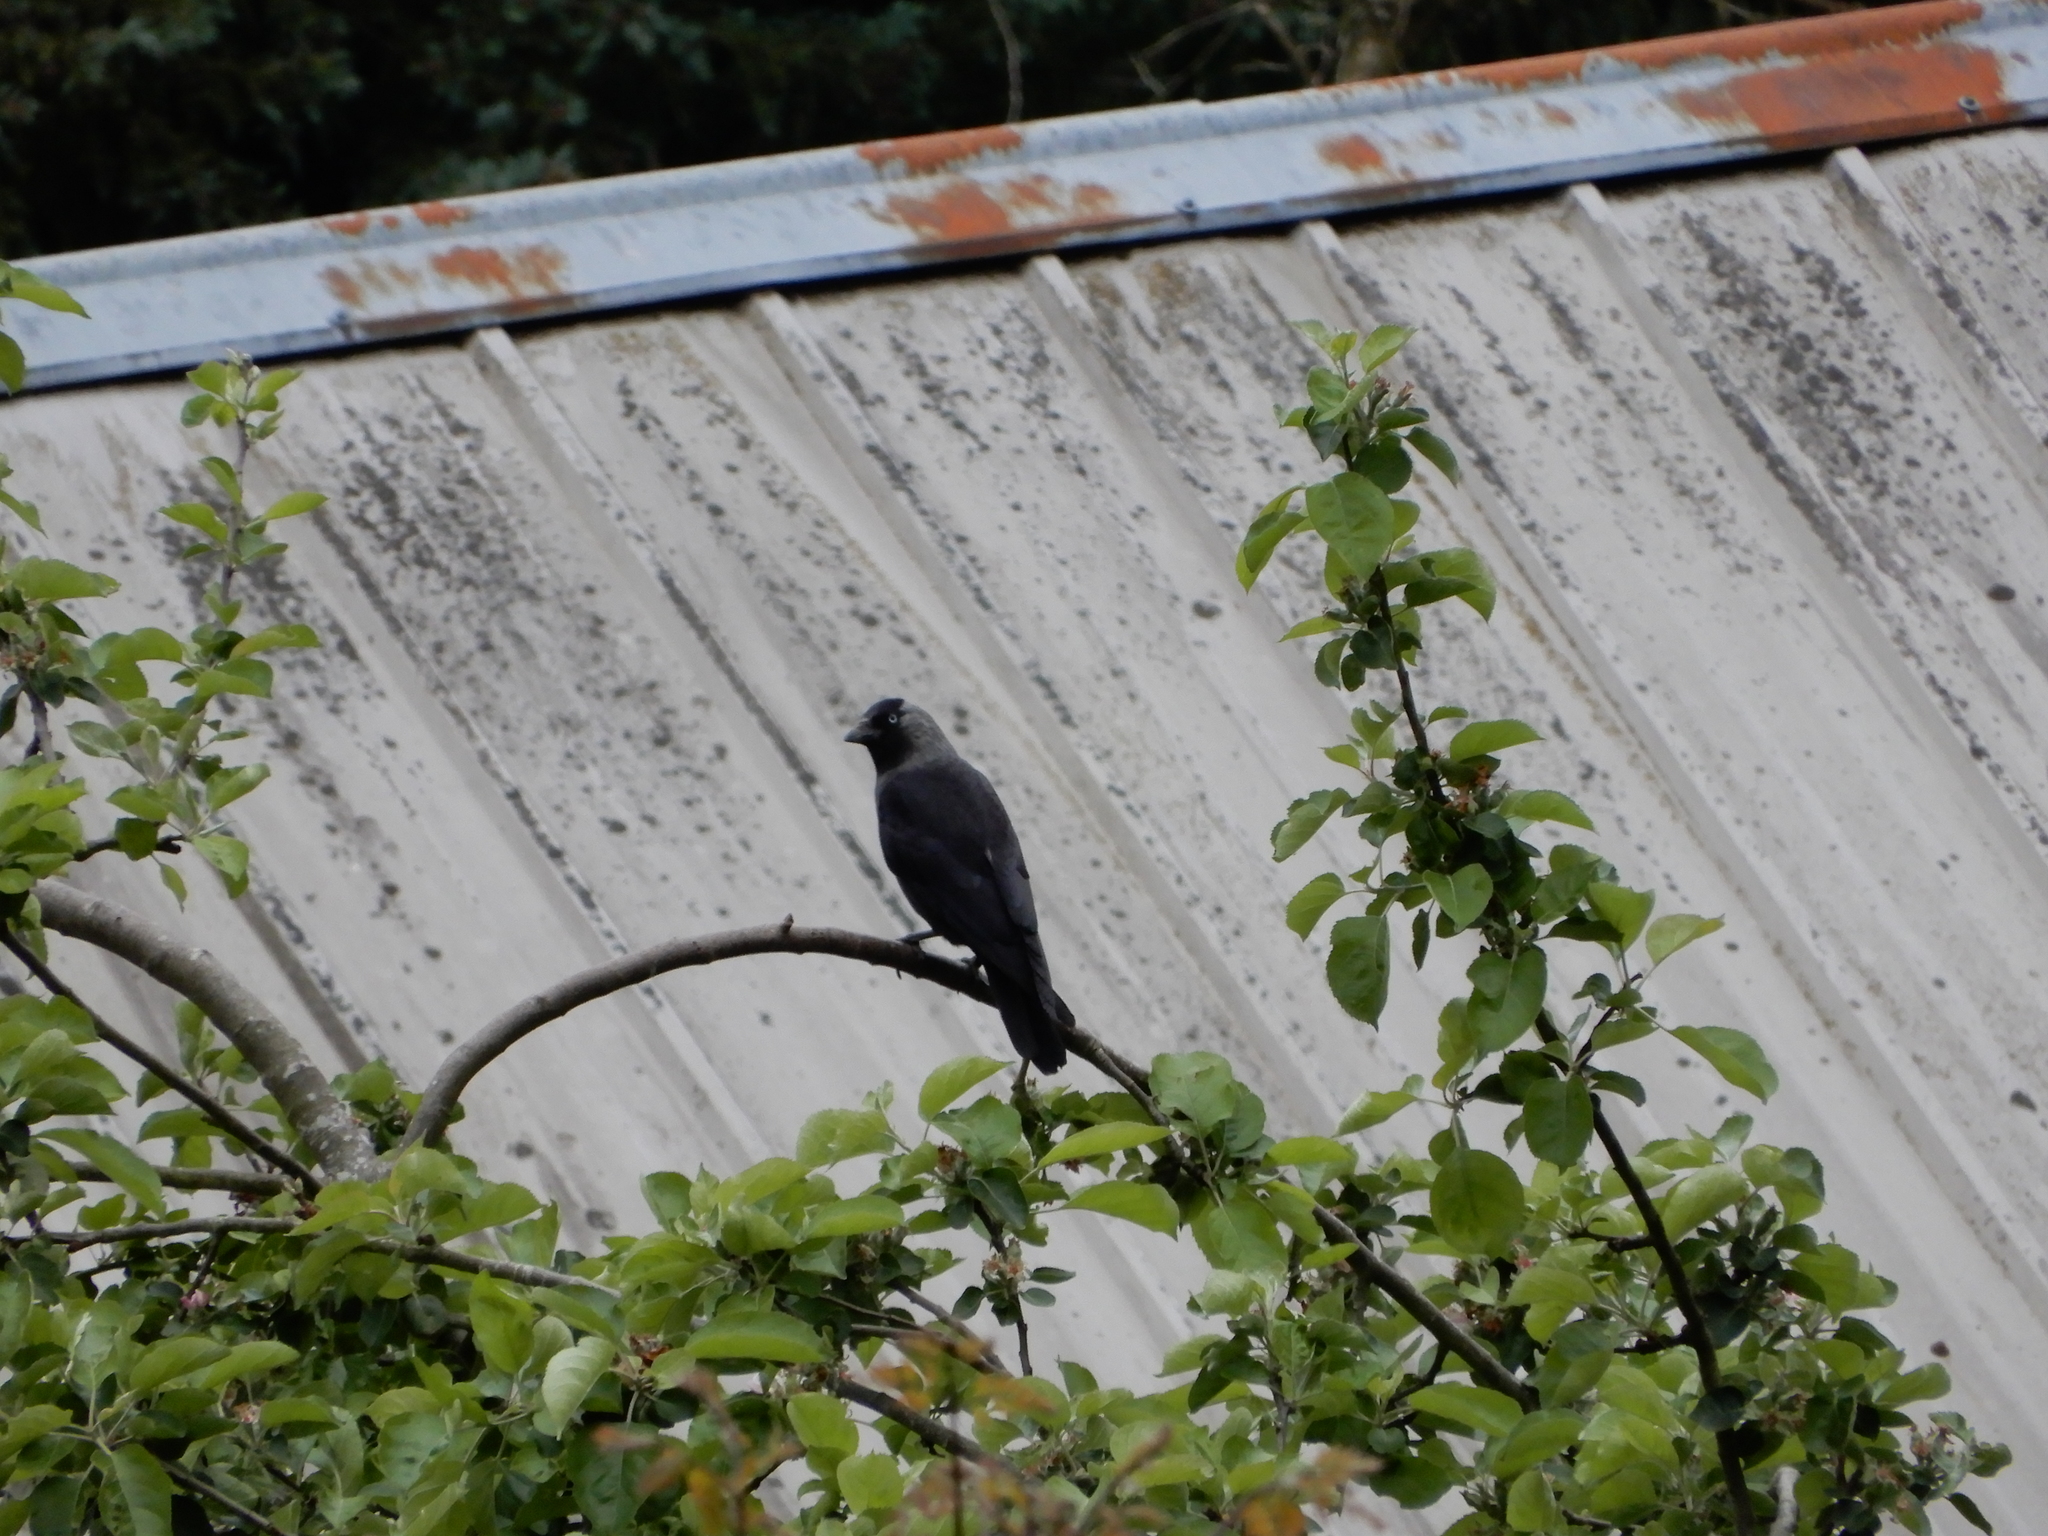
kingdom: Animalia
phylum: Chordata
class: Aves
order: Passeriformes
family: Corvidae
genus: Coloeus
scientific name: Coloeus monedula
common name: Western jackdaw
